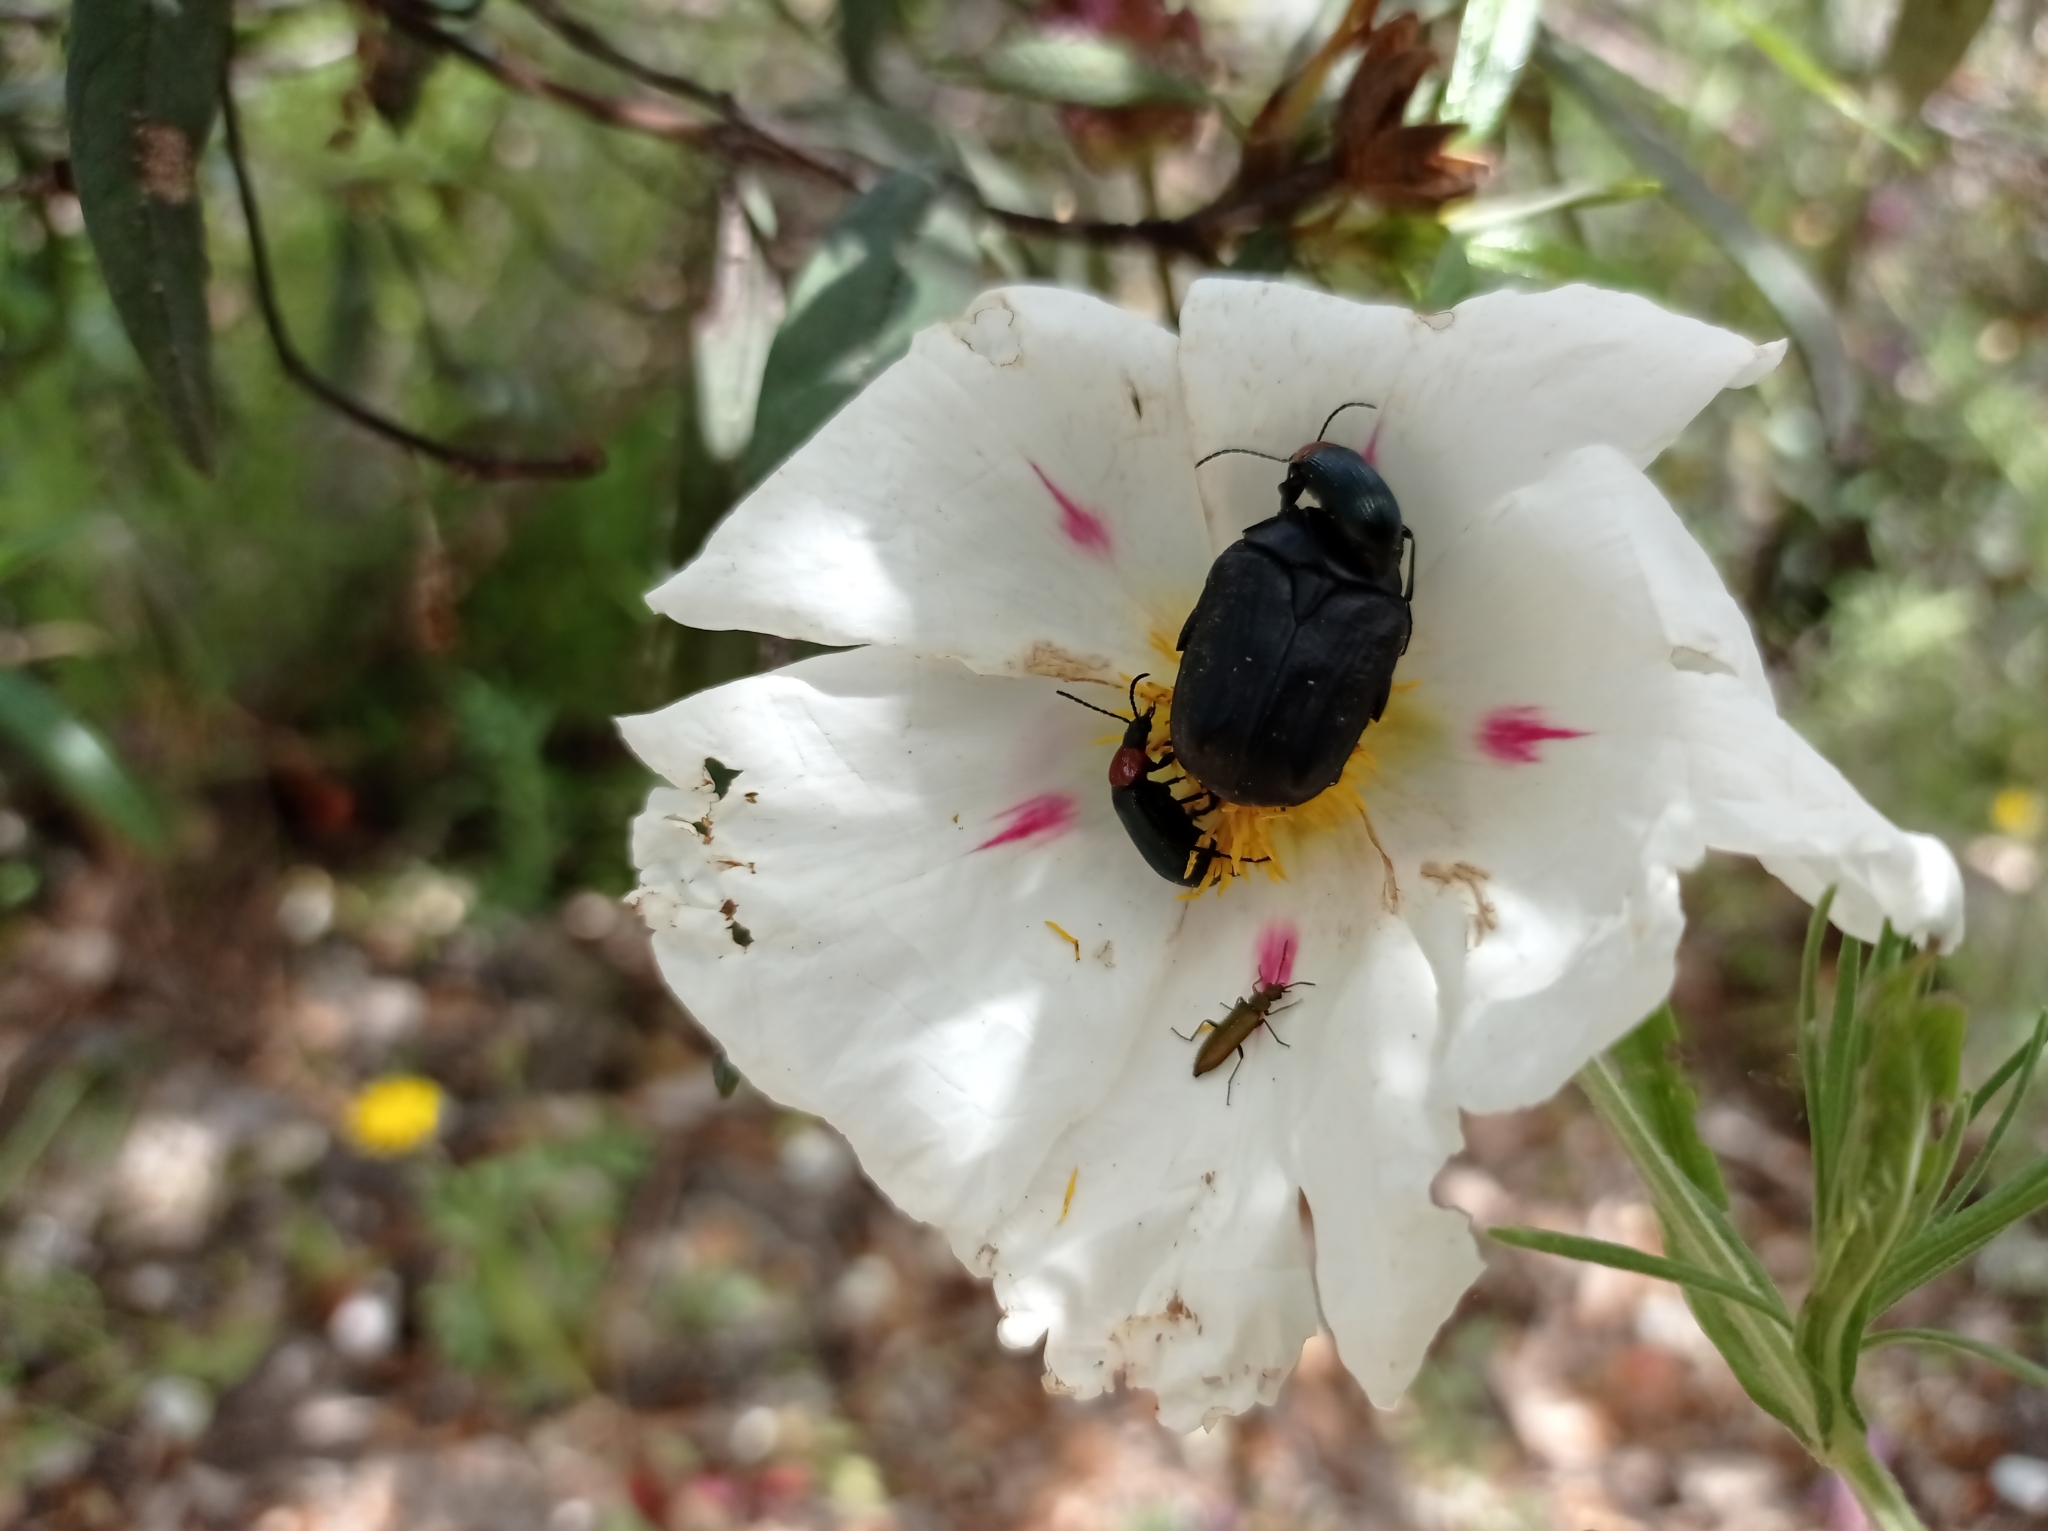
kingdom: Plantae
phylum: Tracheophyta
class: Magnoliopsida
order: Malvales
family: Cistaceae
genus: Cistus
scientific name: Cistus ladanifer
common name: Common gum cistus
